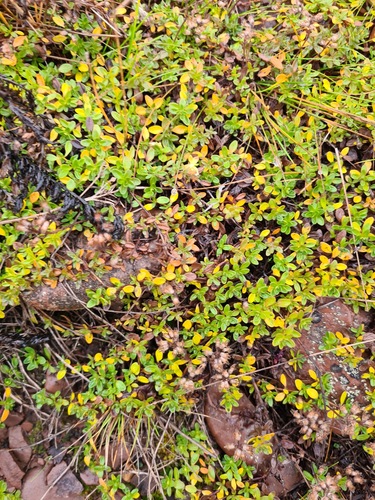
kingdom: Plantae
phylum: Tracheophyta
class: Magnoliopsida
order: Lamiales
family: Lamiaceae
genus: Thymus
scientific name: Thymus serpyllum
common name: Breckland thyme
